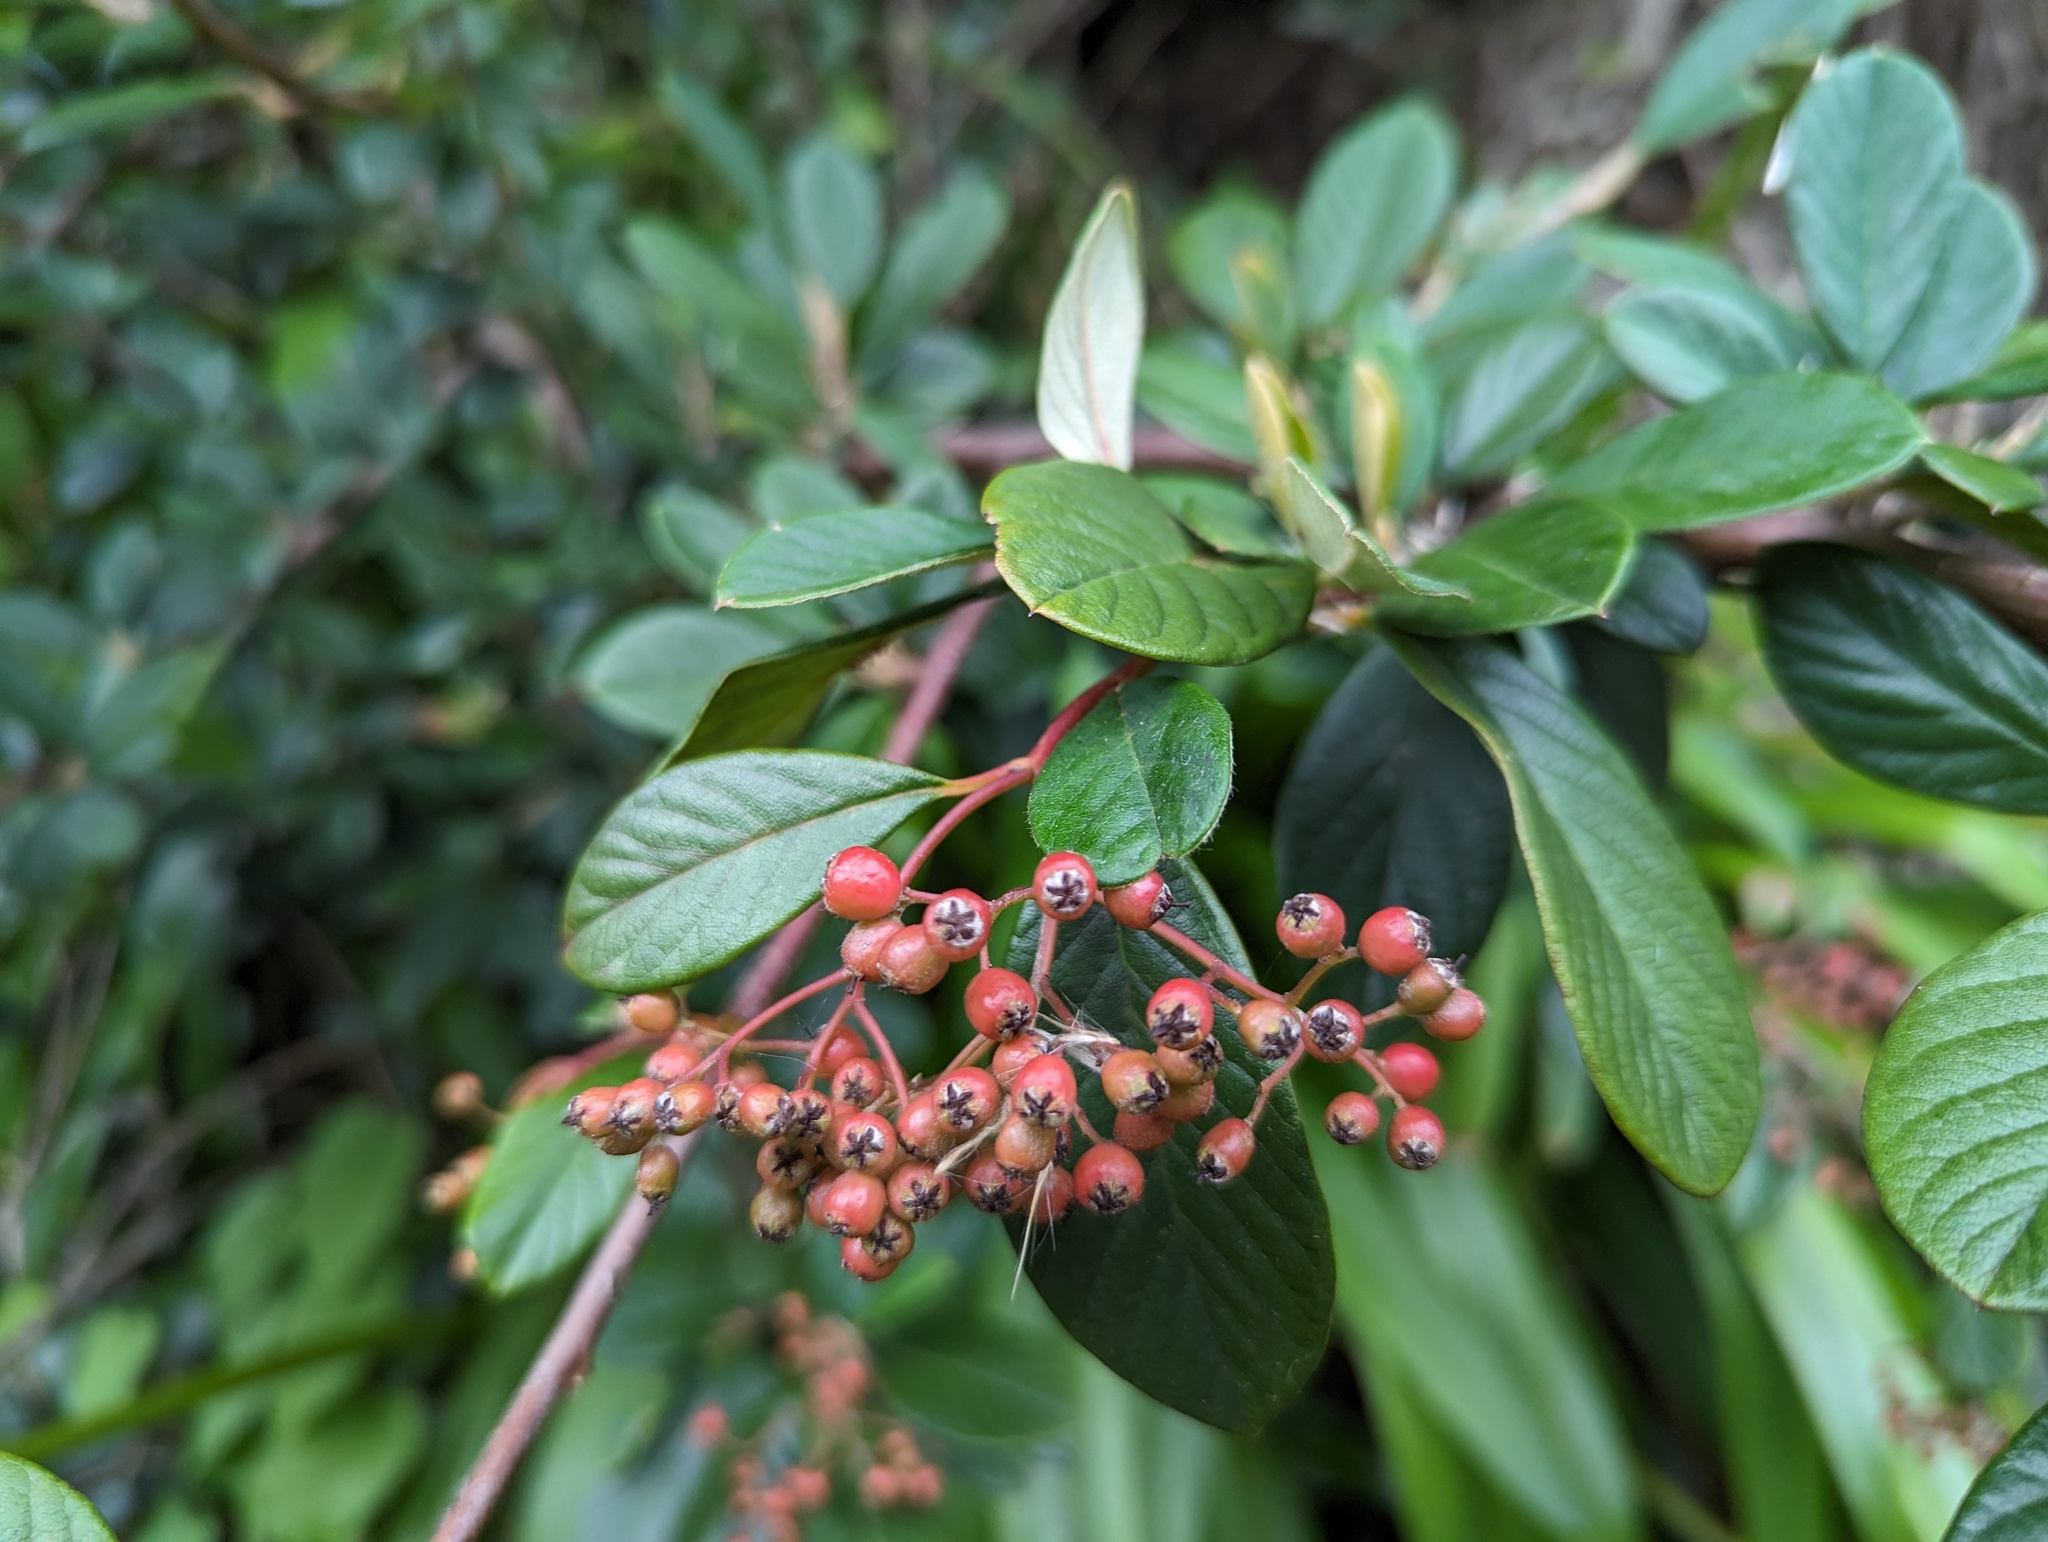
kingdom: Plantae
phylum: Tracheophyta
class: Magnoliopsida
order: Rosales
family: Rosaceae
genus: Cotoneaster
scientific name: Cotoneaster coriaceus
